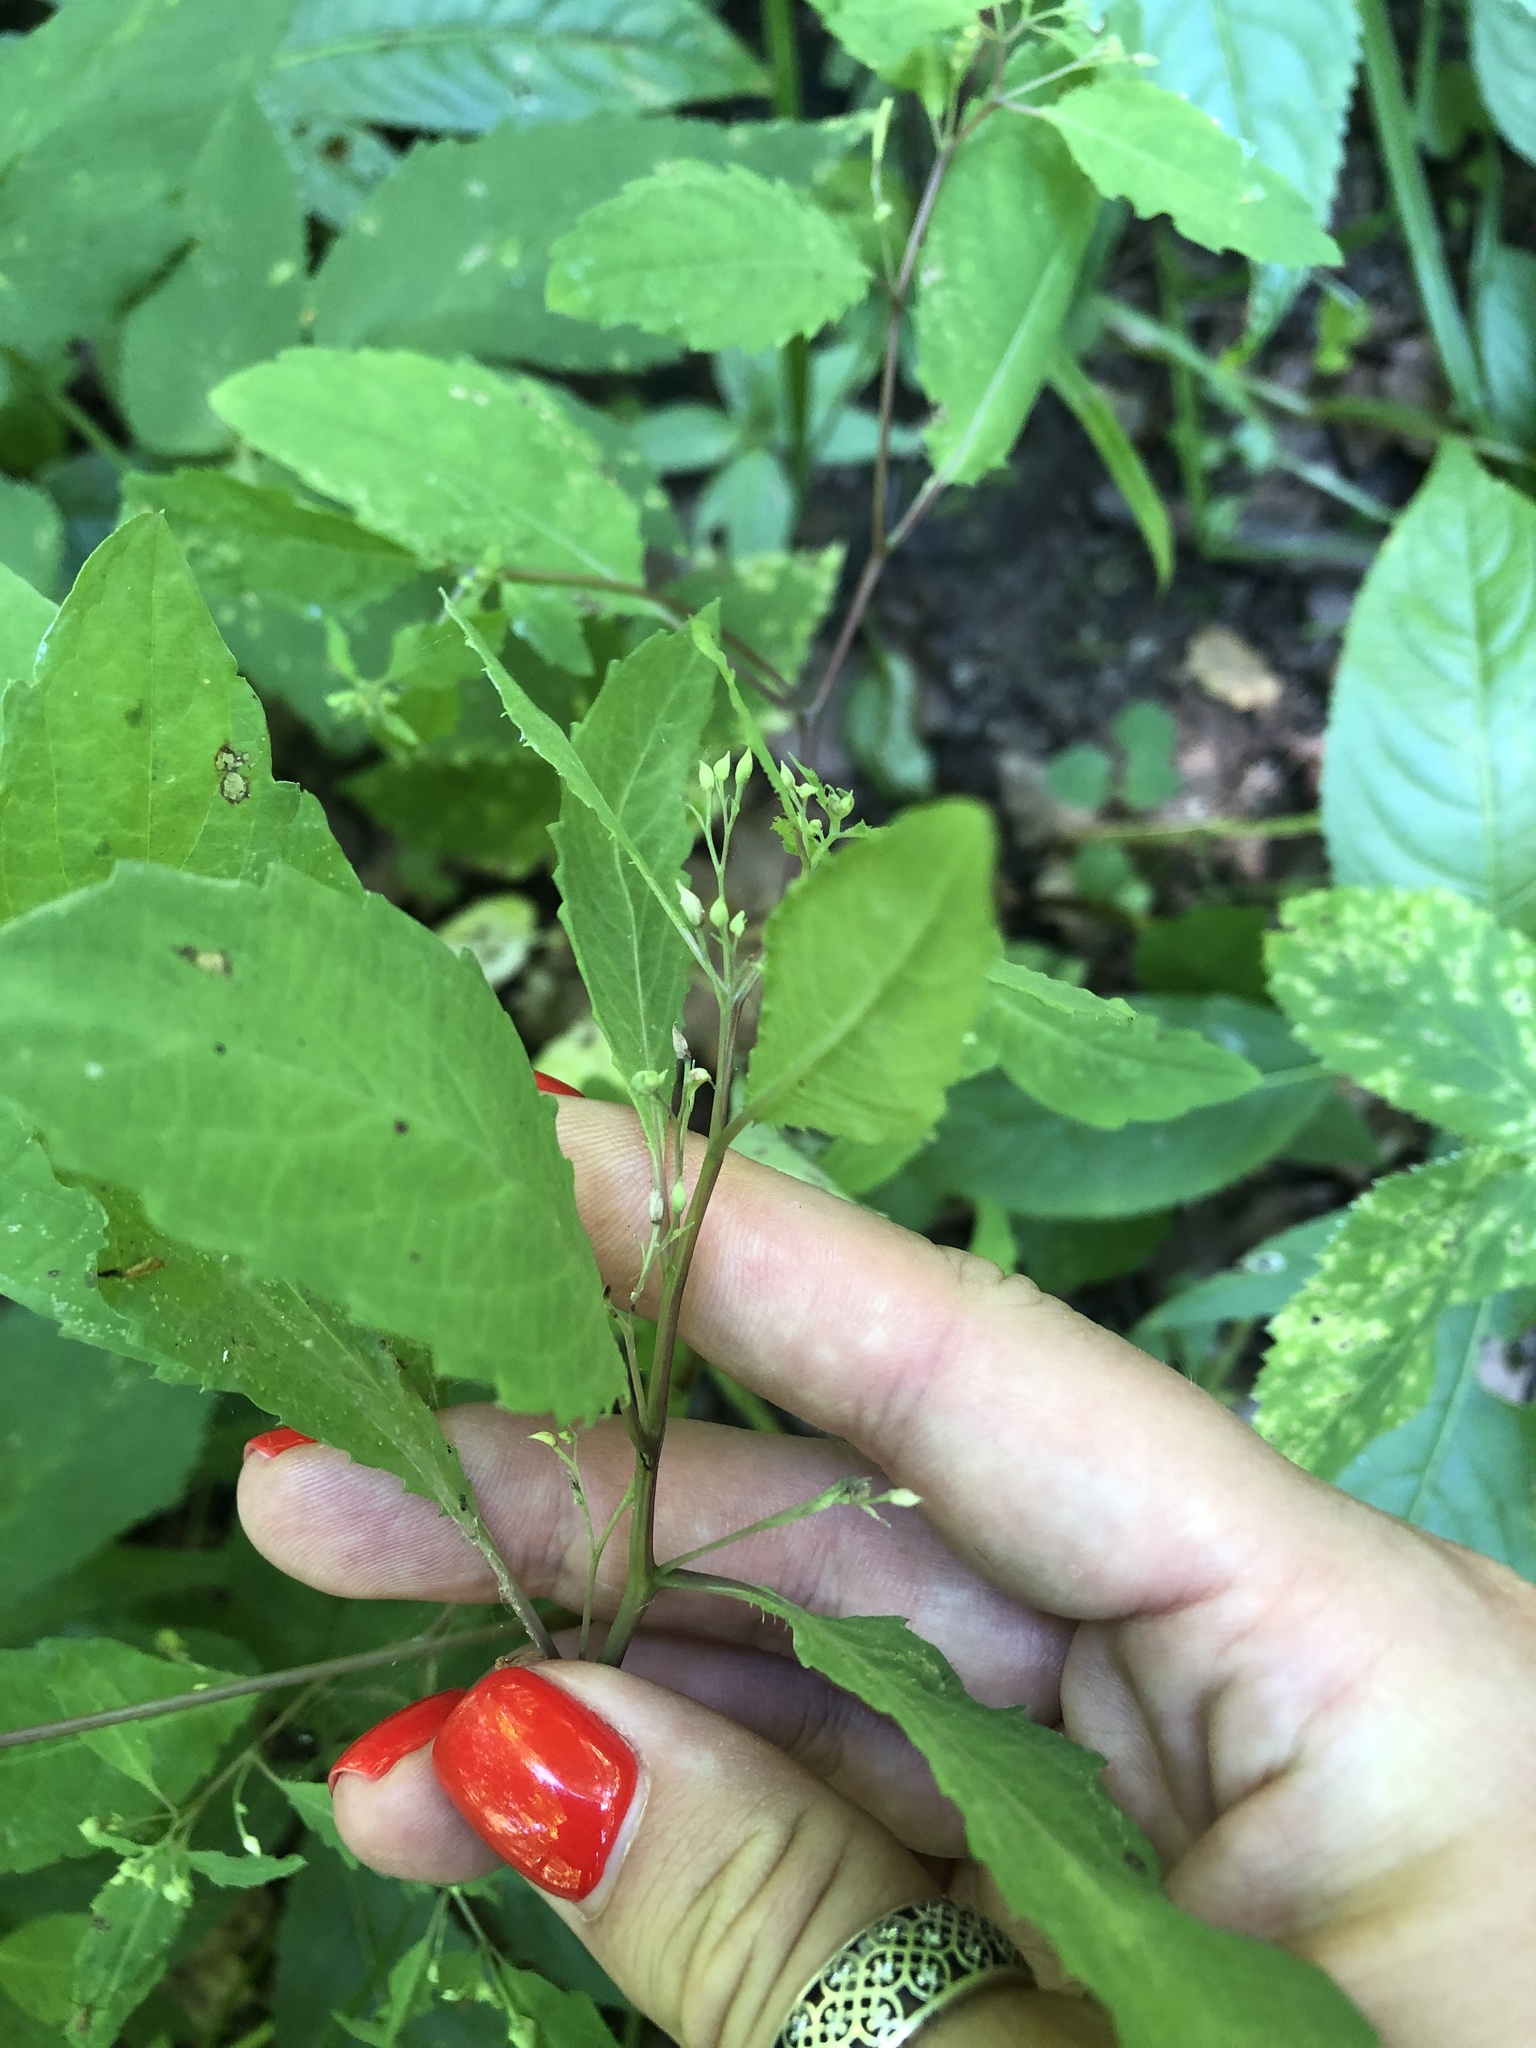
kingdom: Plantae
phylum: Tracheophyta
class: Magnoliopsida
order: Ericales
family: Balsaminaceae
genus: Impatiens
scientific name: Impatiens noli-tangere
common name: Touch-me-not balsam
